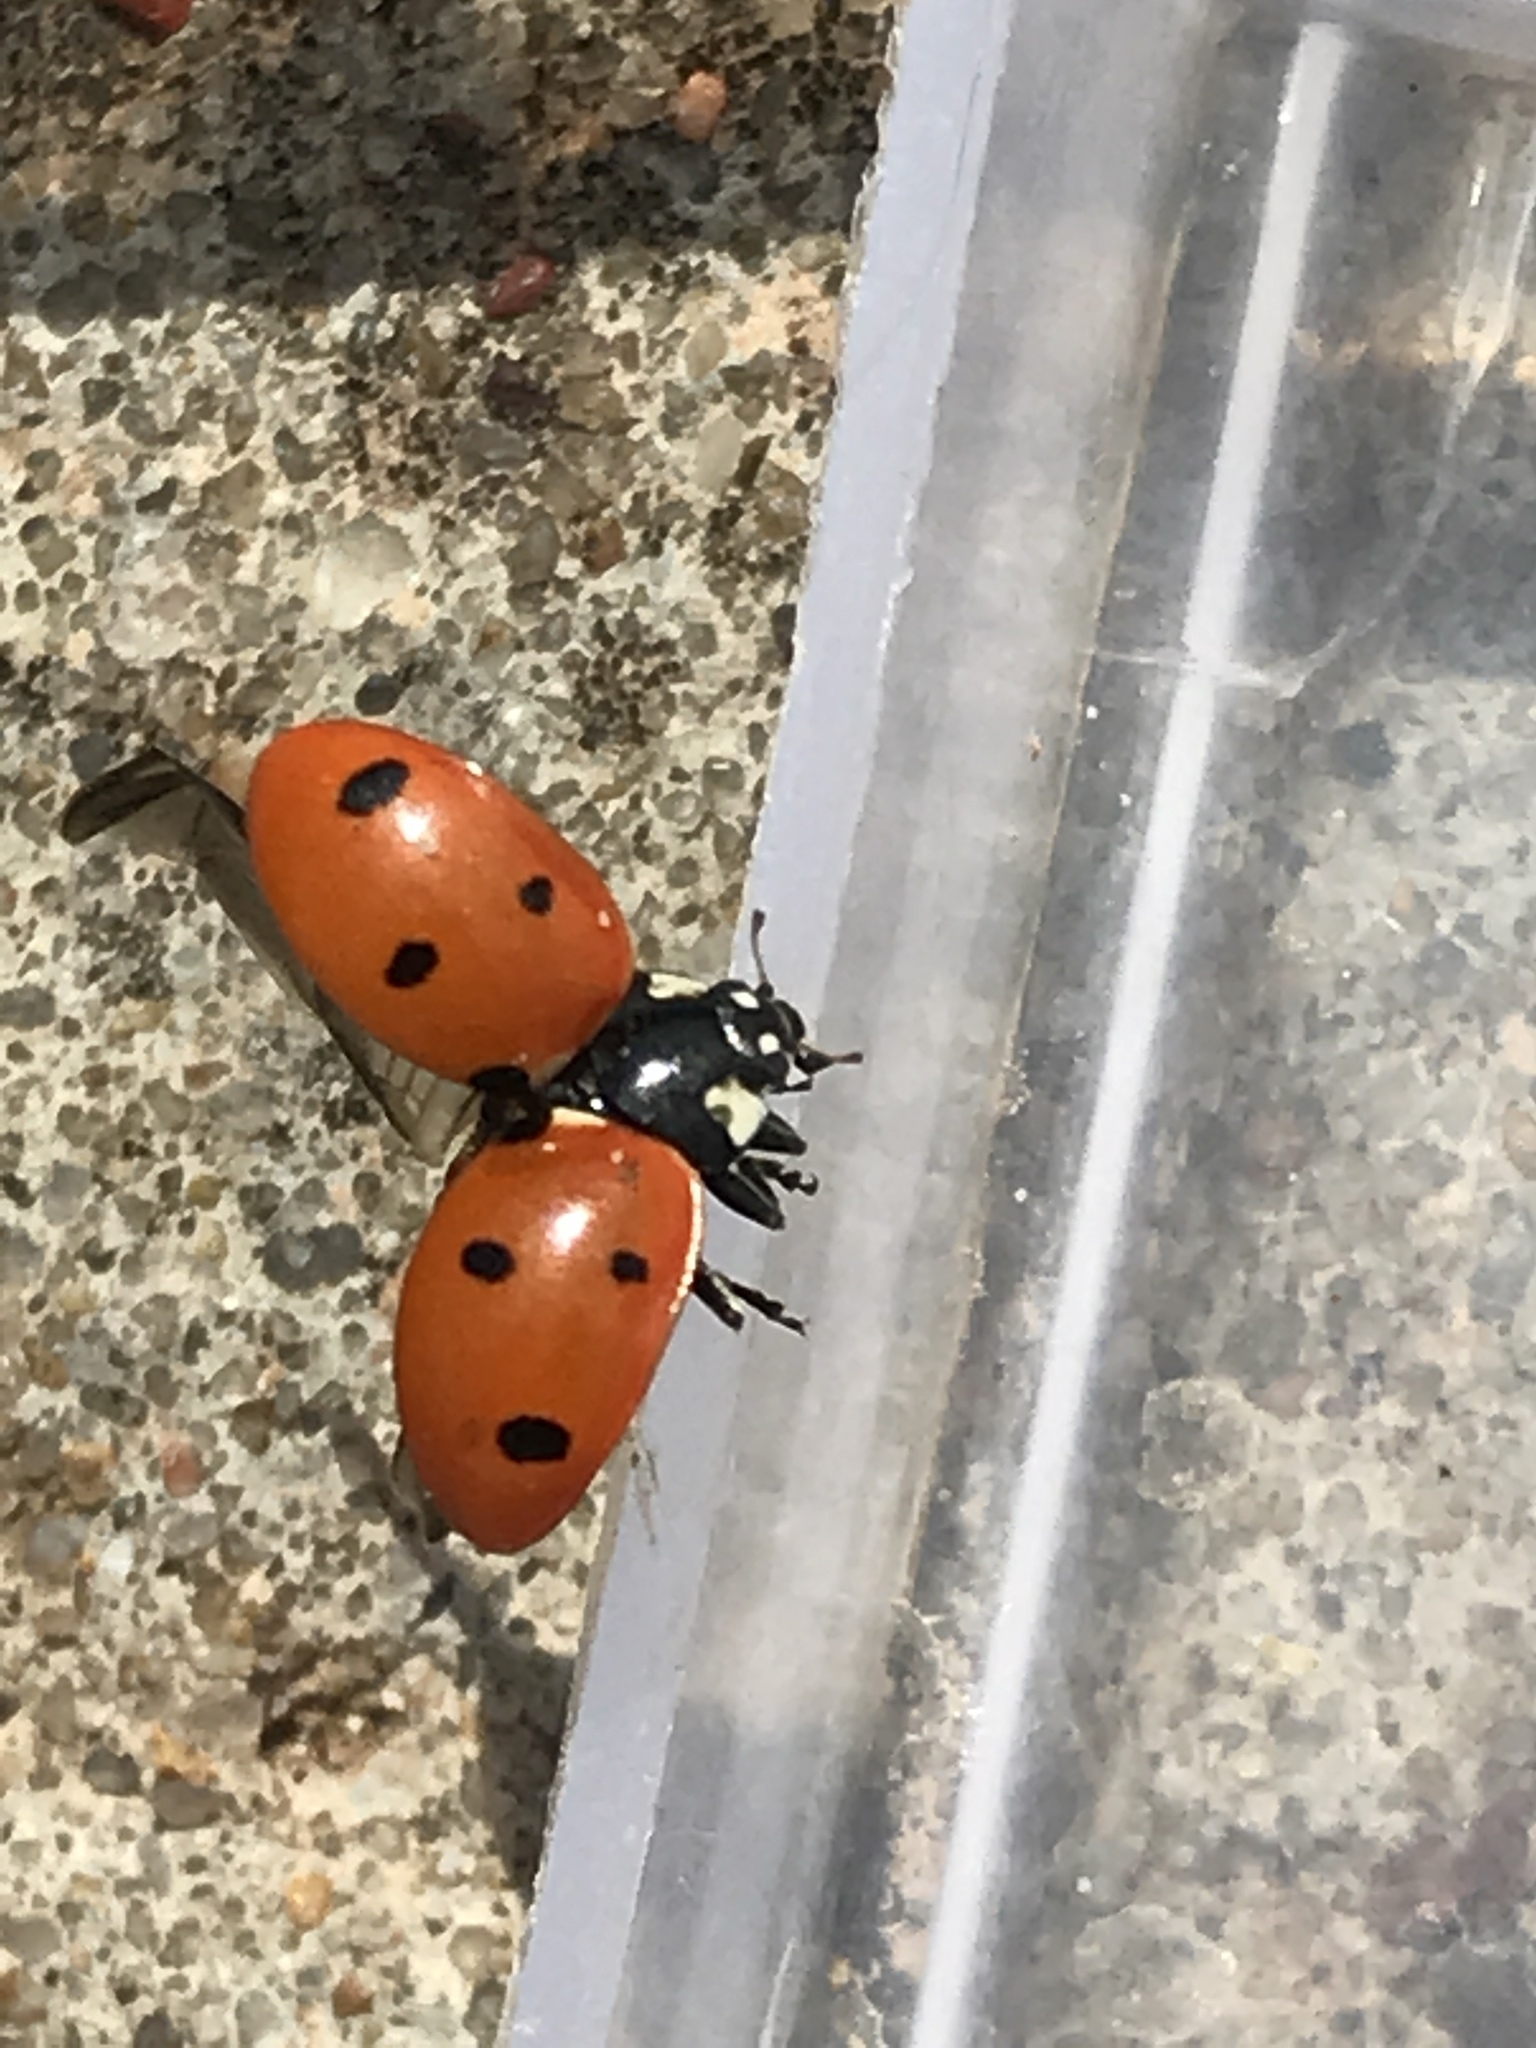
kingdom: Animalia
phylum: Arthropoda
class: Insecta
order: Coleoptera
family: Coccinellidae
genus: Coccinella
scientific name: Coccinella septempunctata
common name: Sevenspotted lady beetle
